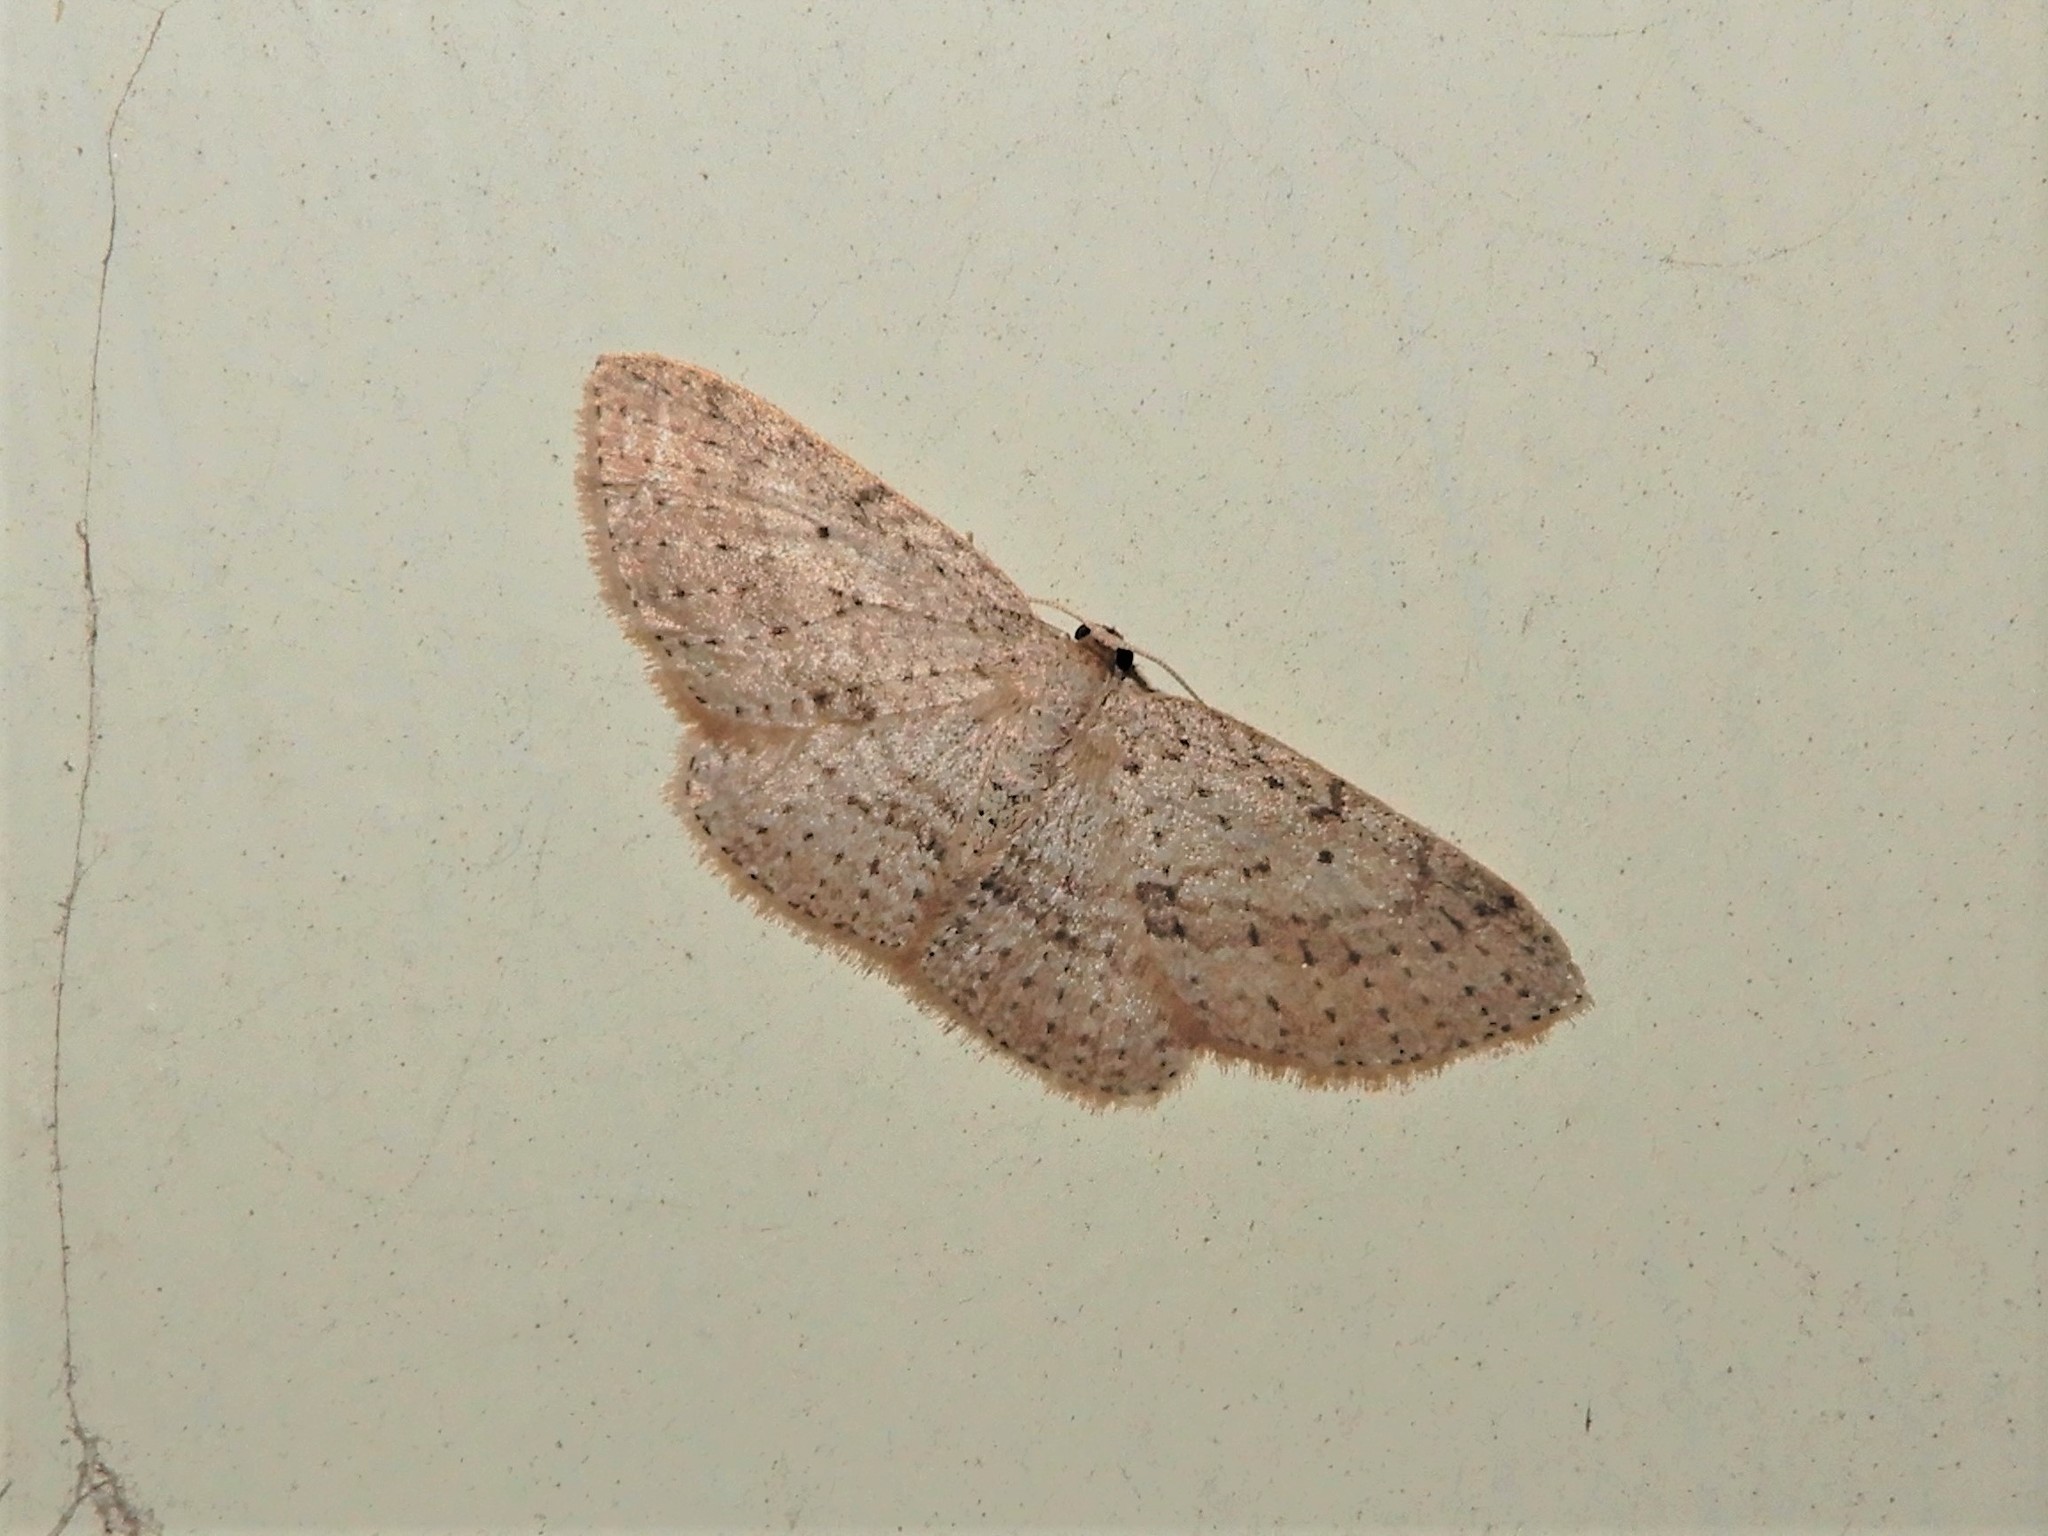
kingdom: Animalia
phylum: Arthropoda
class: Insecta
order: Lepidoptera
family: Geometridae
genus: Poecilasthena
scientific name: Poecilasthena schistaria
